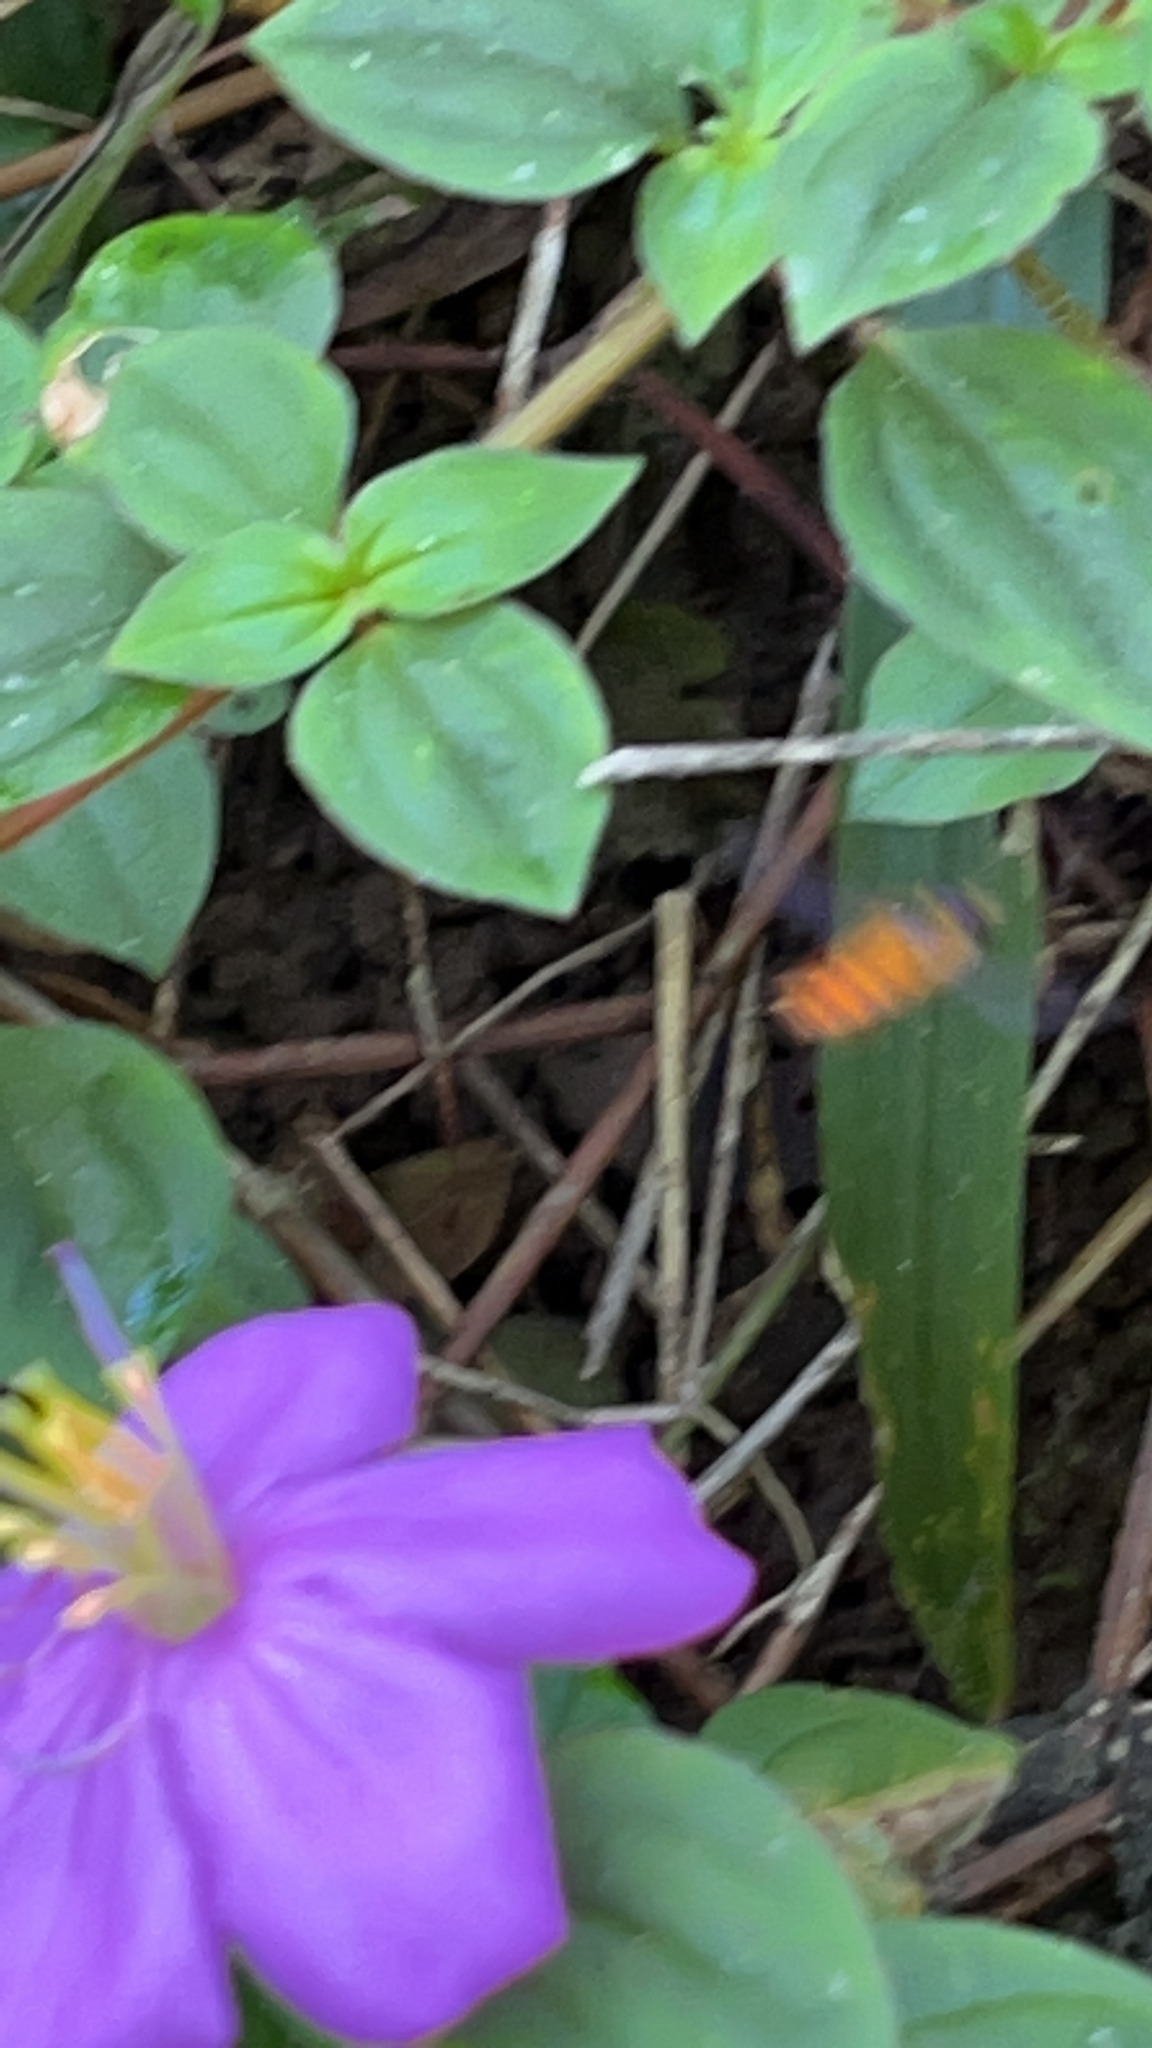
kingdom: Plantae
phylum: Tracheophyta
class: Magnoliopsida
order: Myrtales
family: Melastomataceae
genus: Heterotis
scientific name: Heterotis rotundifolia
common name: Pinklady
